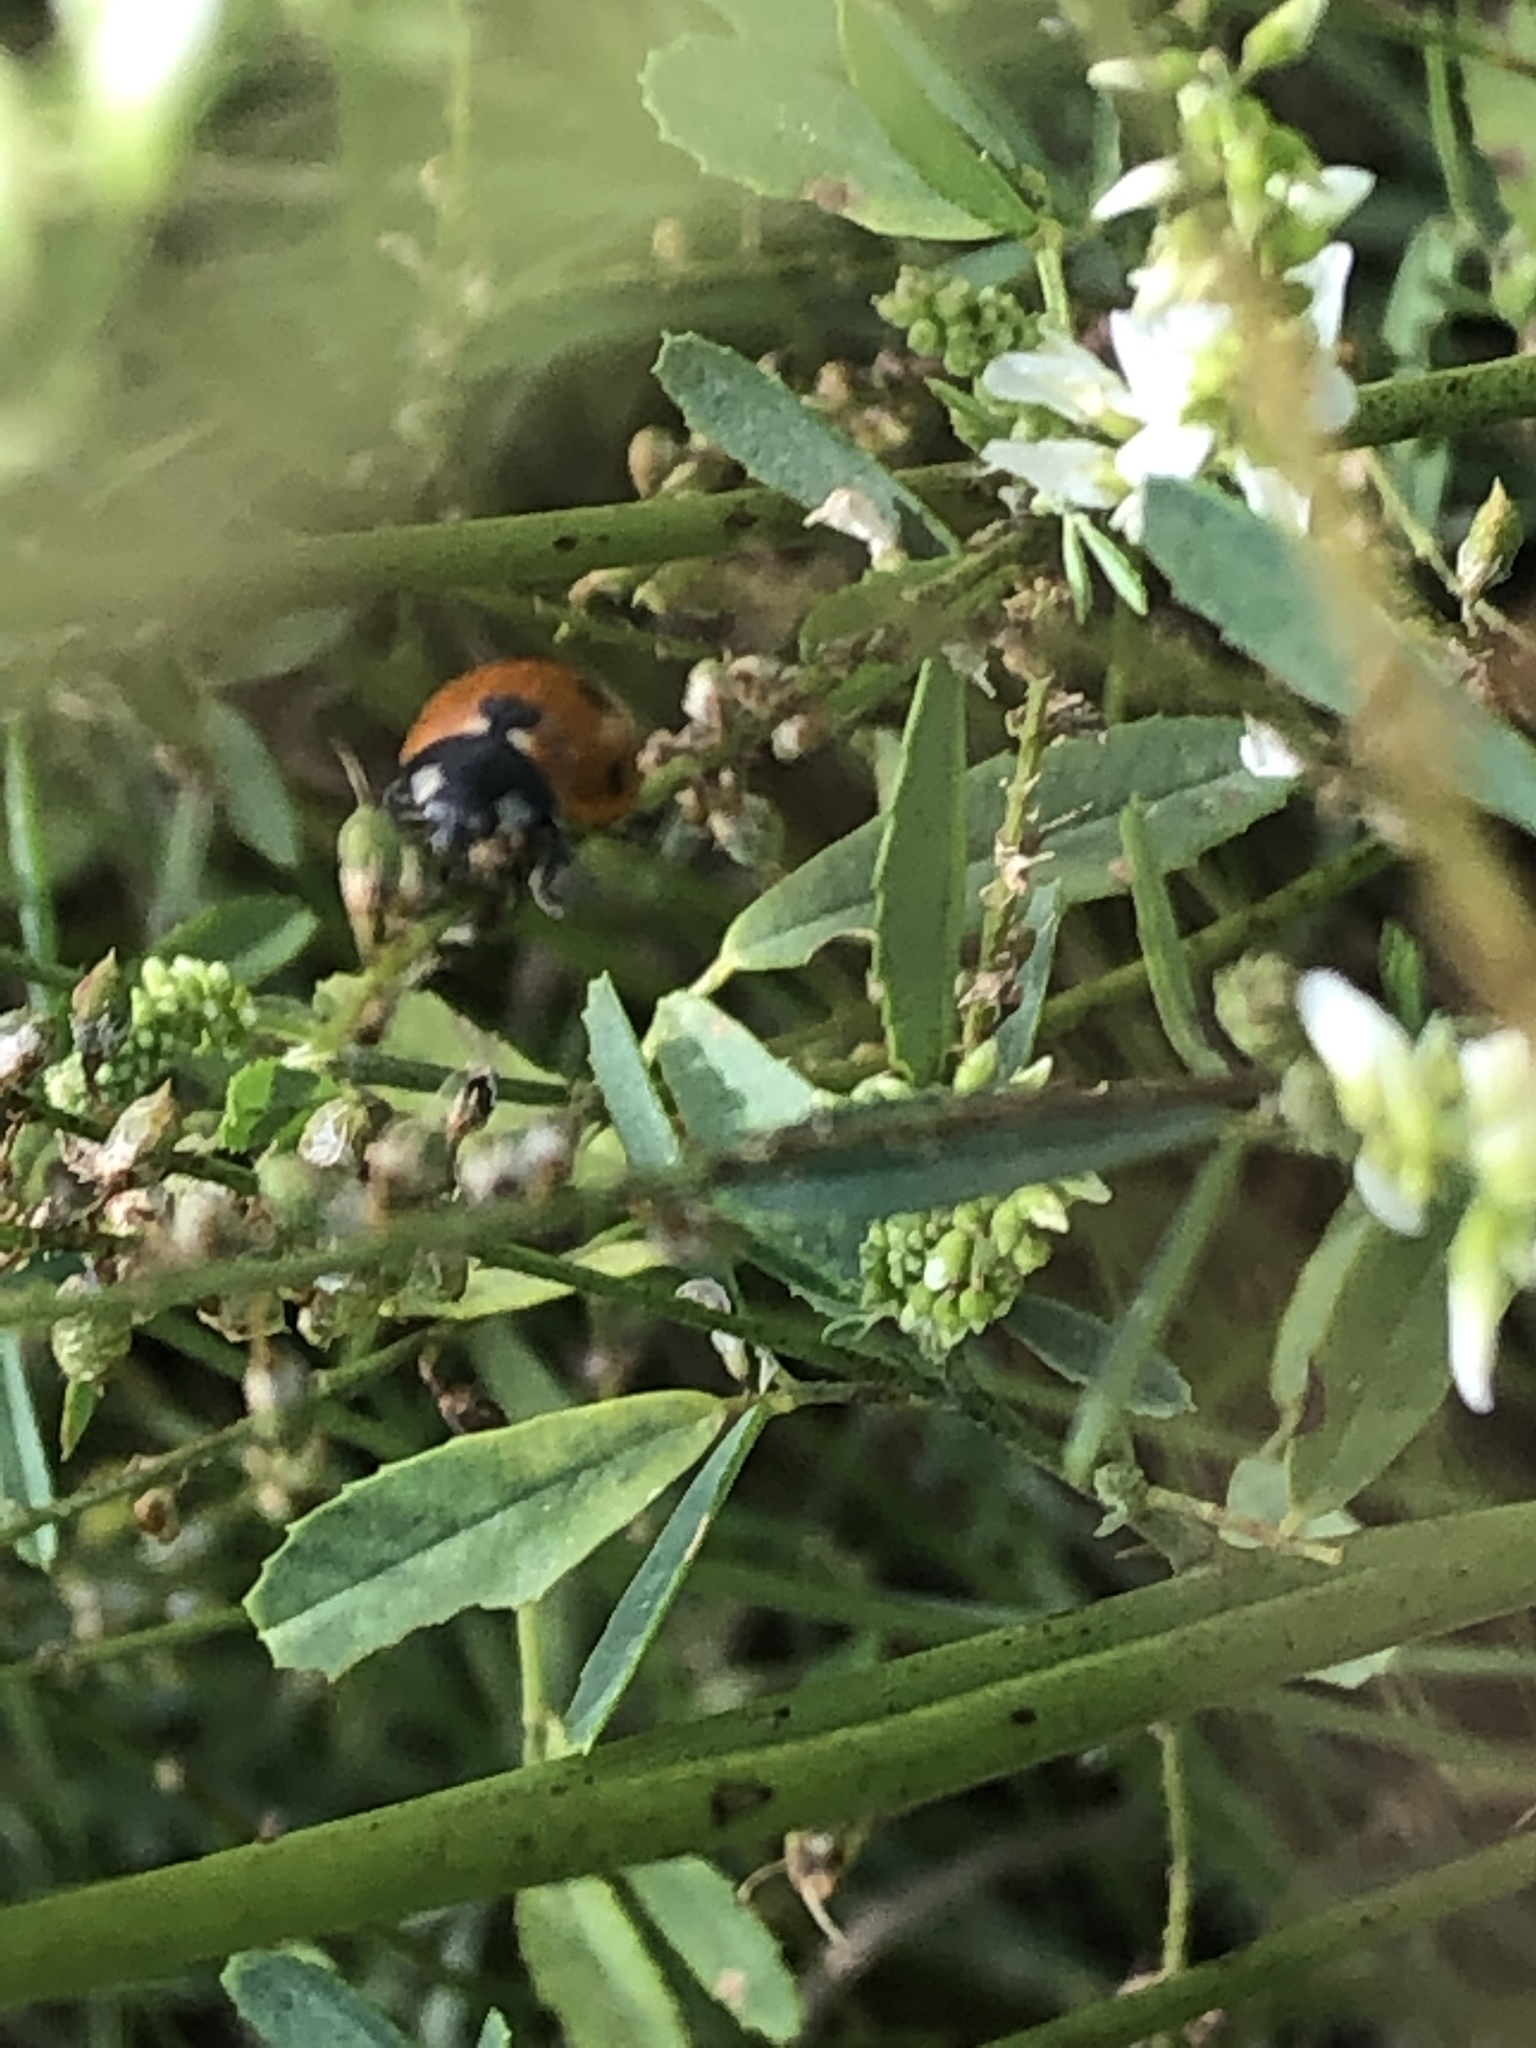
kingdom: Animalia
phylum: Arthropoda
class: Insecta
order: Coleoptera
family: Coccinellidae
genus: Coccinella
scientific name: Coccinella septempunctata
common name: Sevenspotted lady beetle
